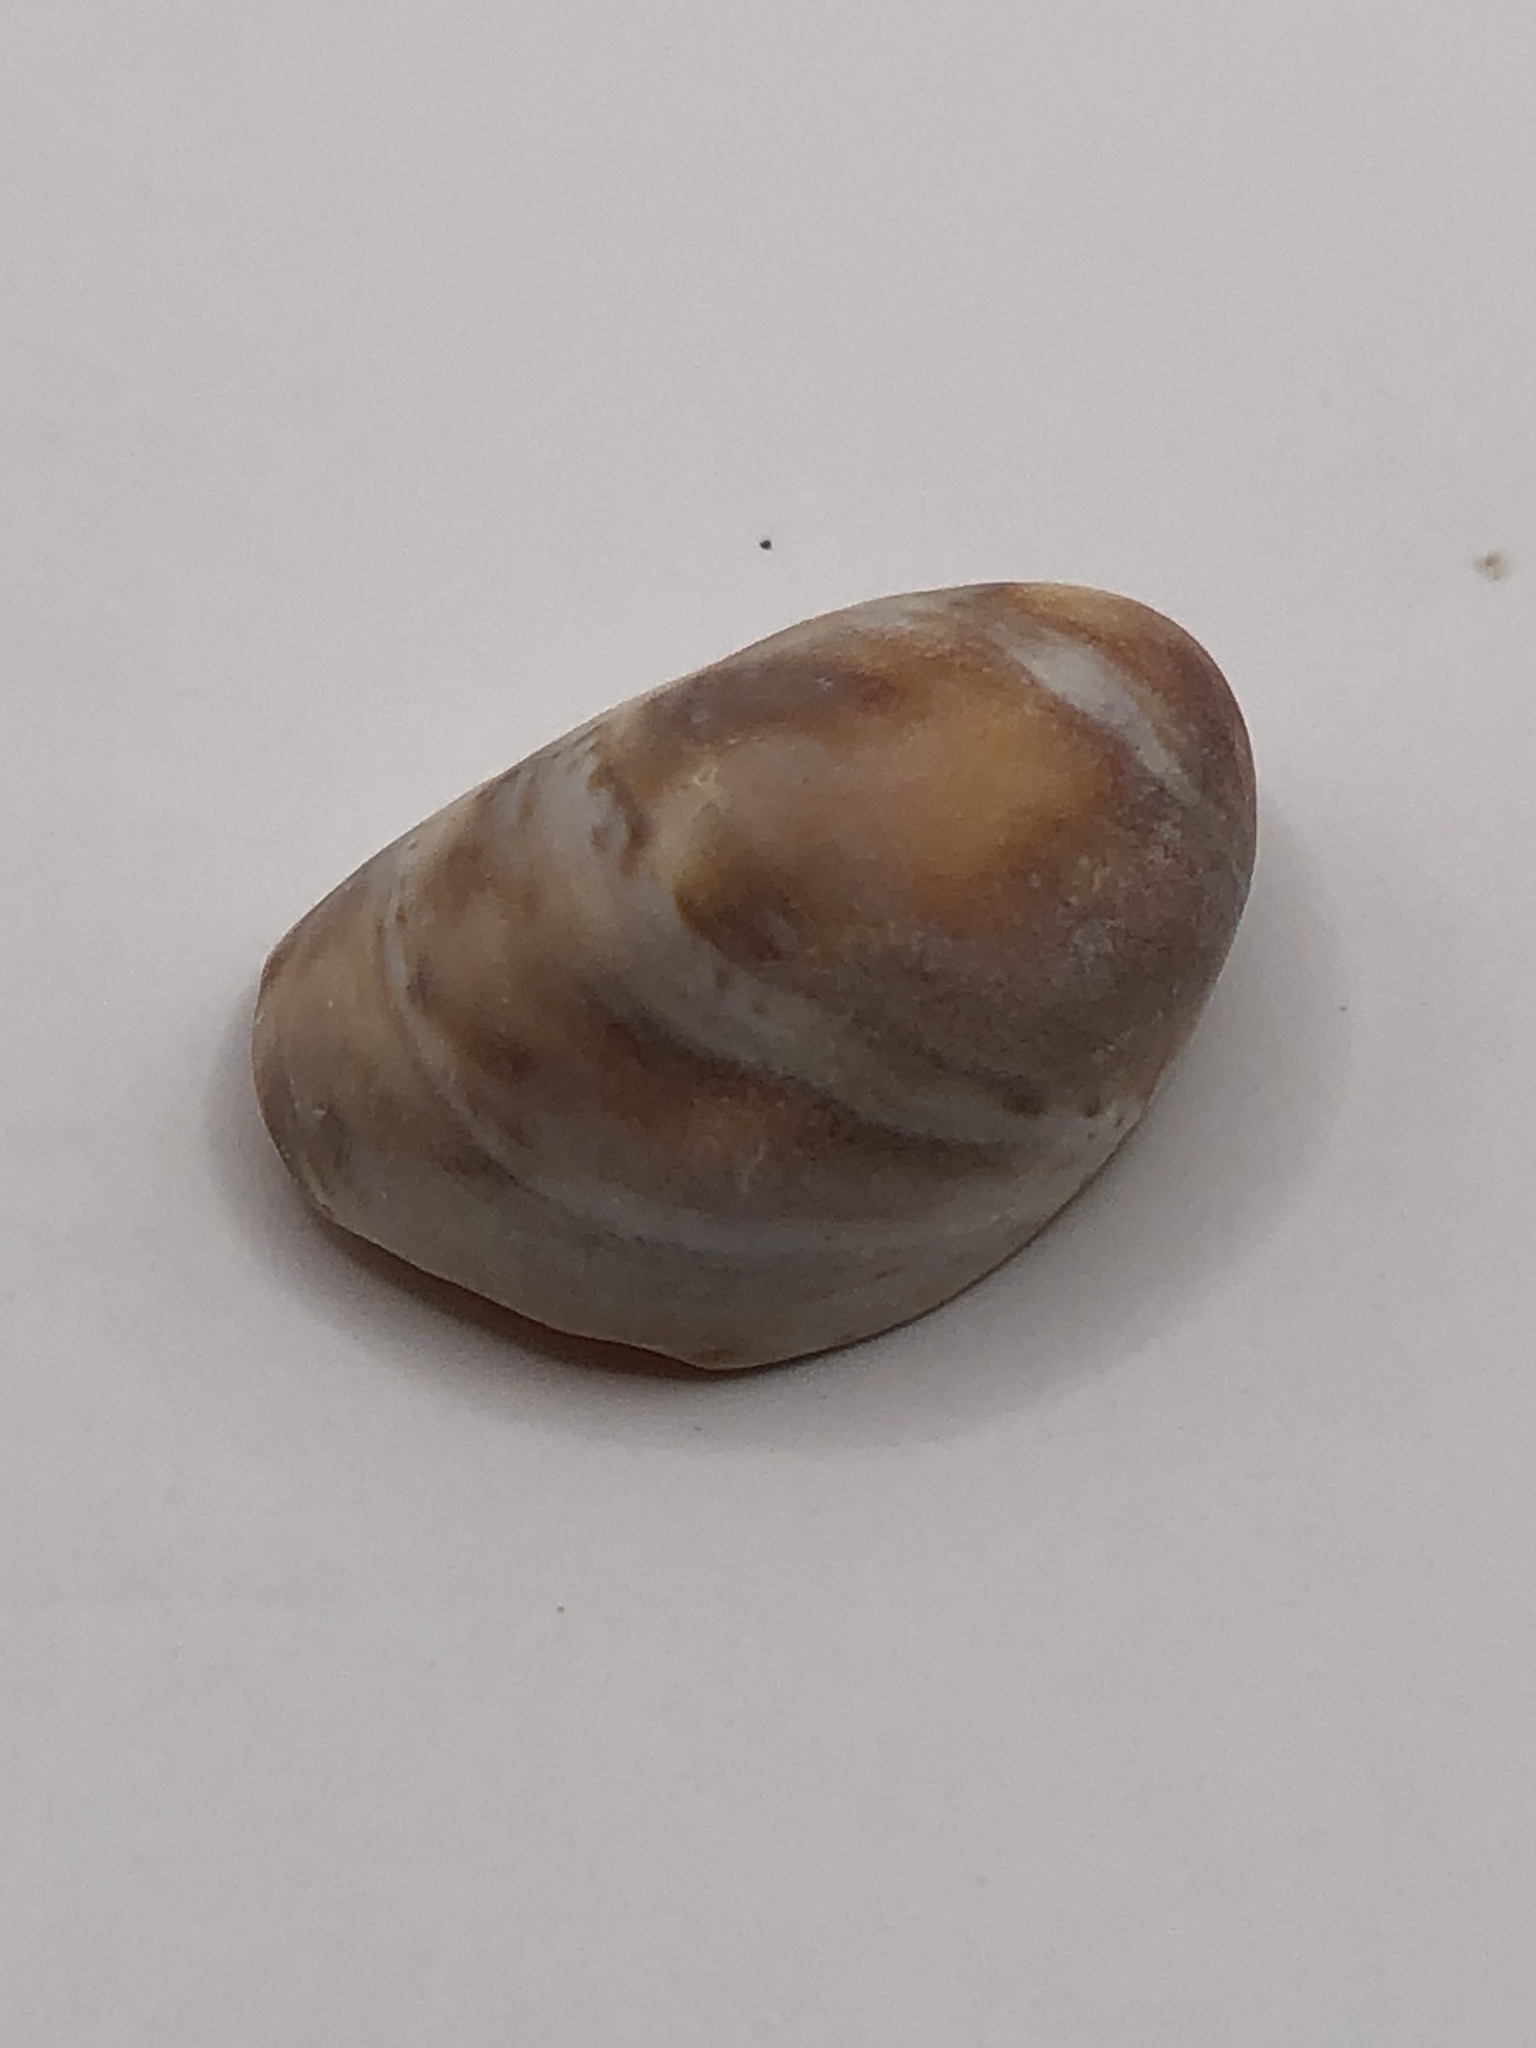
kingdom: Animalia
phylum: Mollusca
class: Gastropoda
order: Littorinimorpha
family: Calyptraeidae
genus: Crepidula
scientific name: Crepidula fornicata
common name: Slipper limpet
